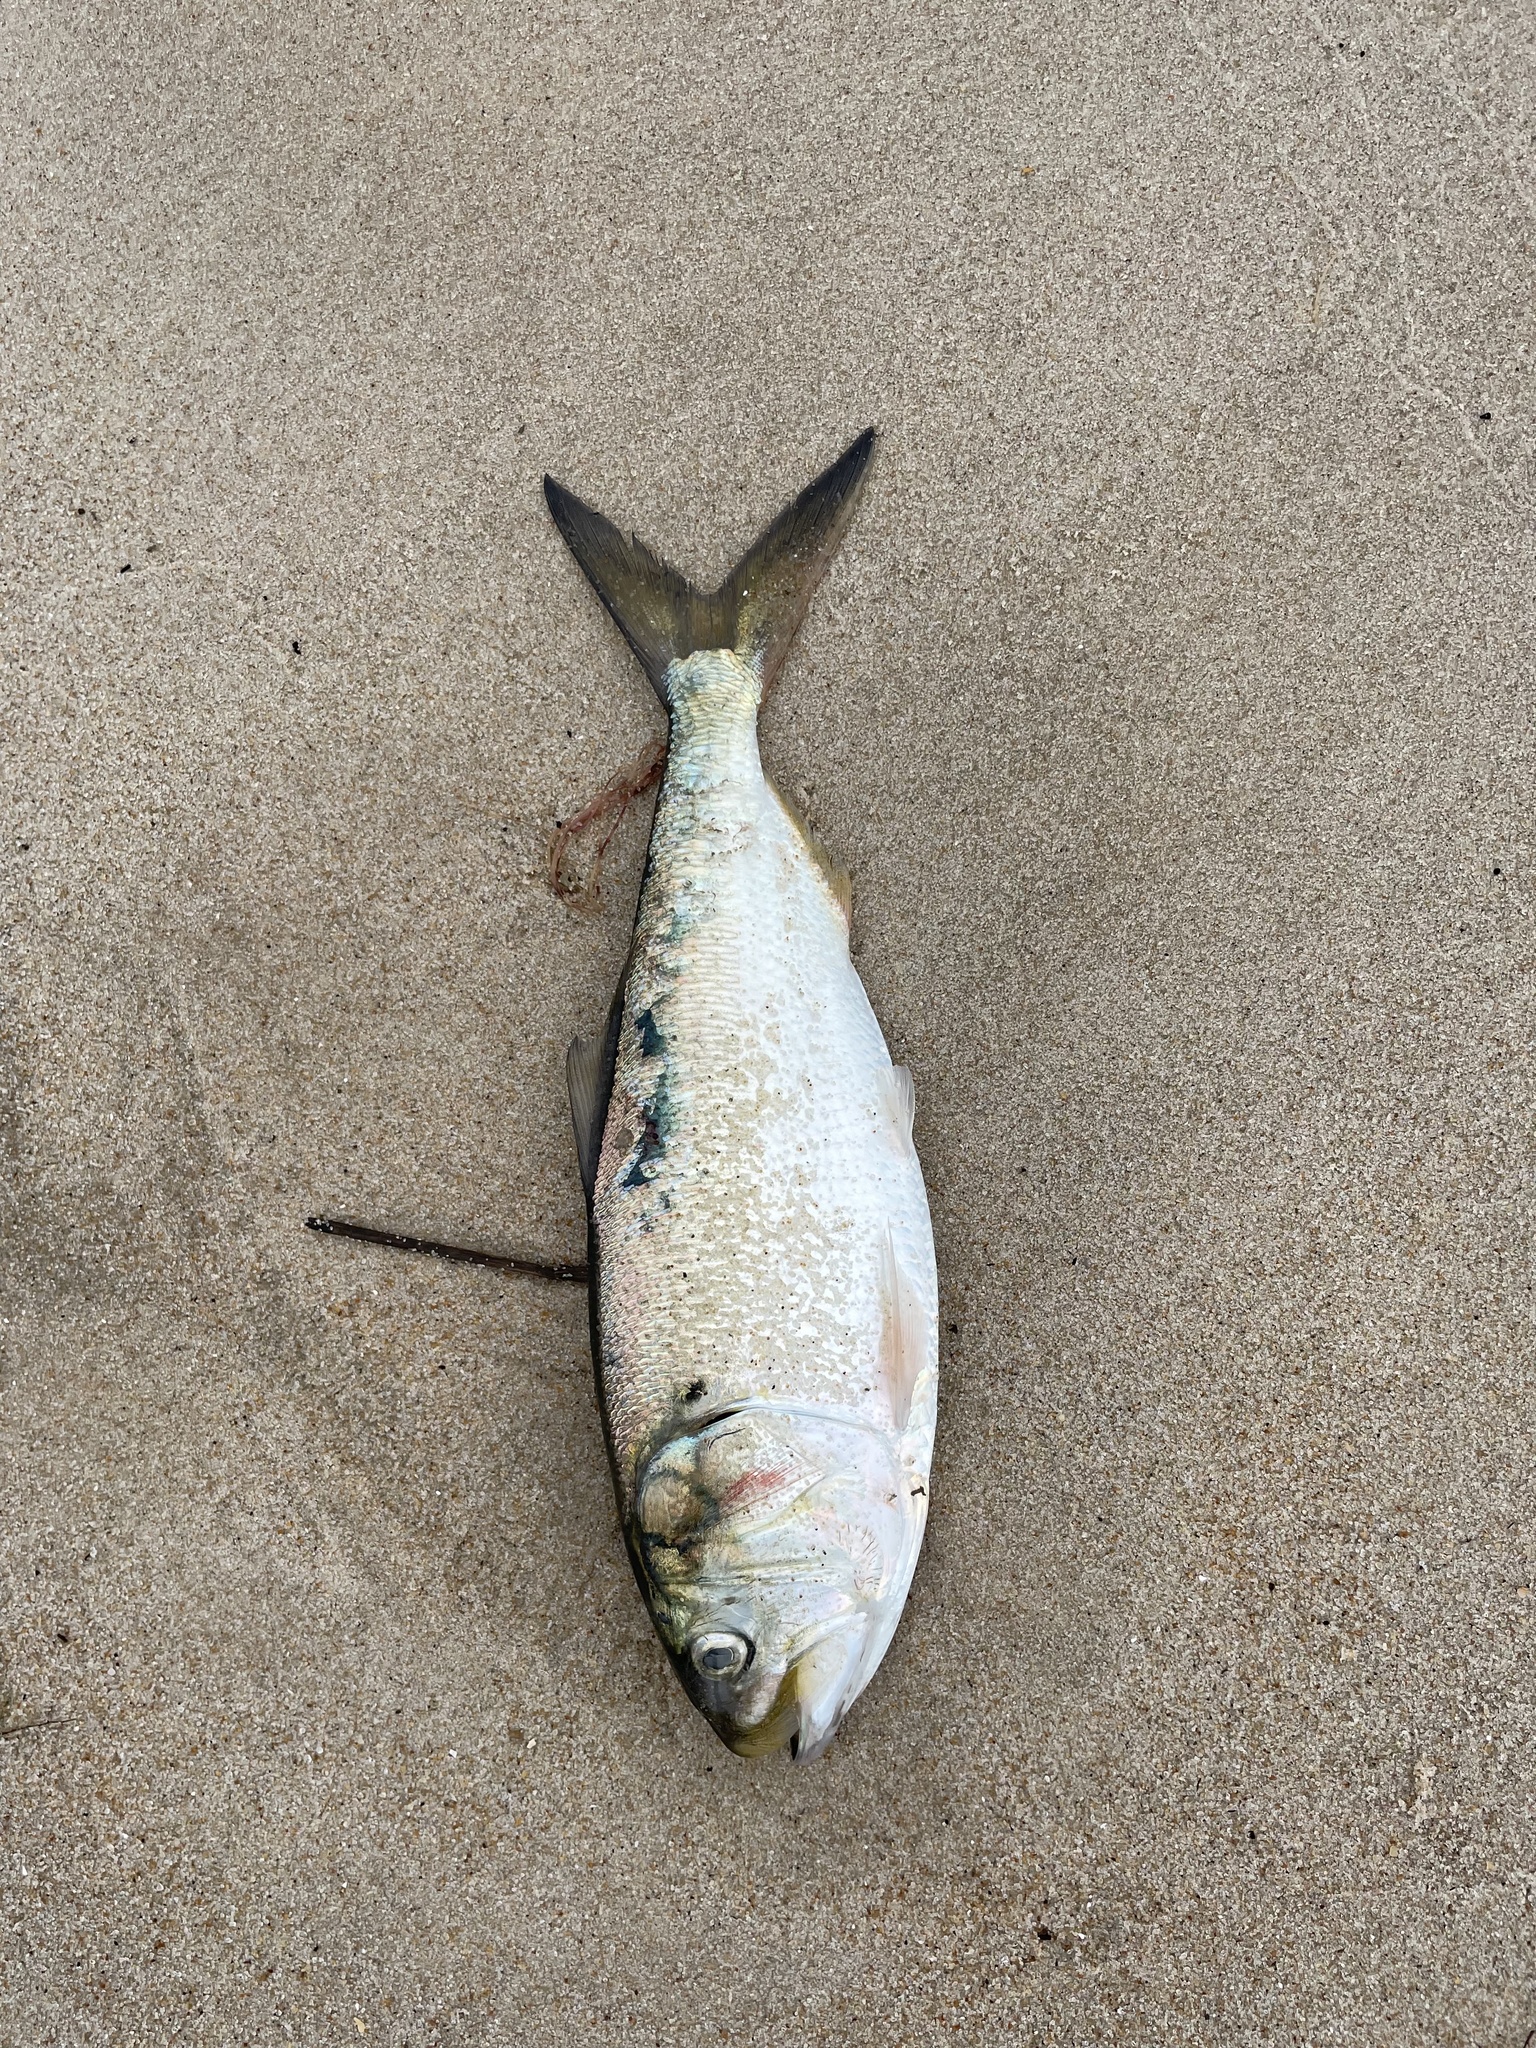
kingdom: Animalia
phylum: Chordata
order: Clupeiformes
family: Clupeidae
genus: Brevoortia
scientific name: Brevoortia tyrannus
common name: Atlantic menhaden
